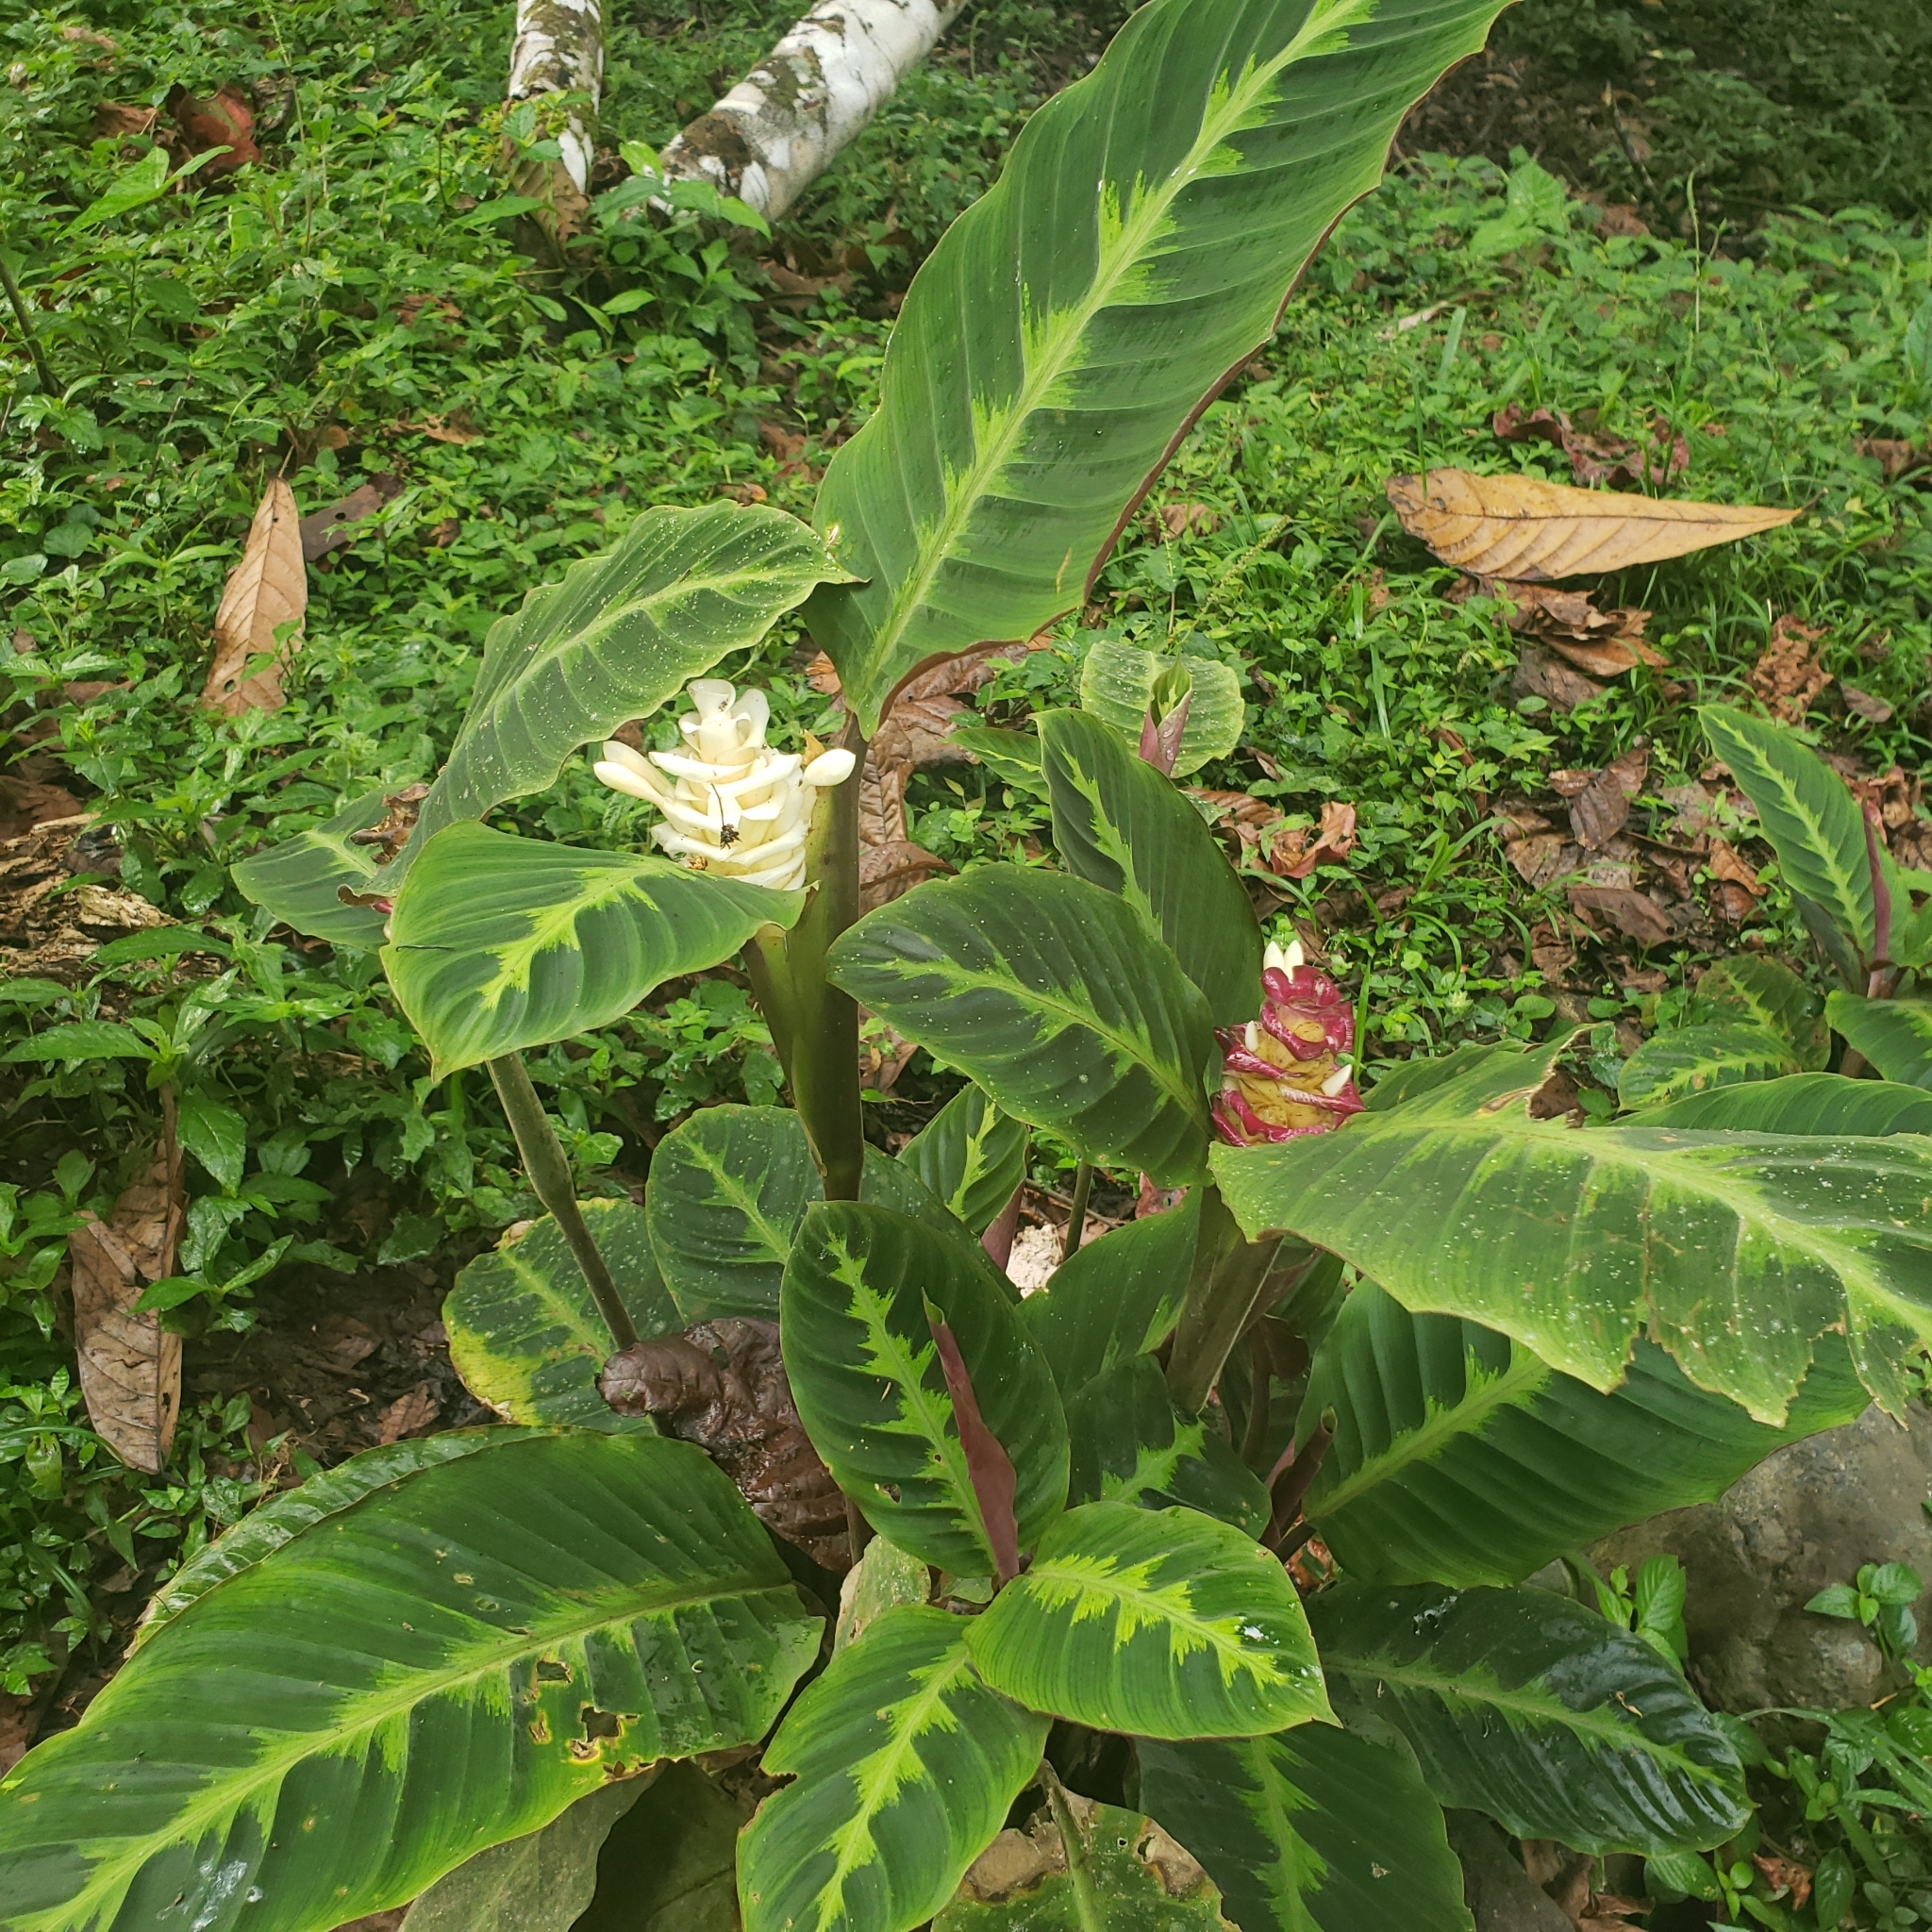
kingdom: Plantae
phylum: Tracheophyta
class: Liliopsida
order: Zingiberales
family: Marantaceae
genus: Goeppertia
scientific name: Goeppertia warszewiczii
